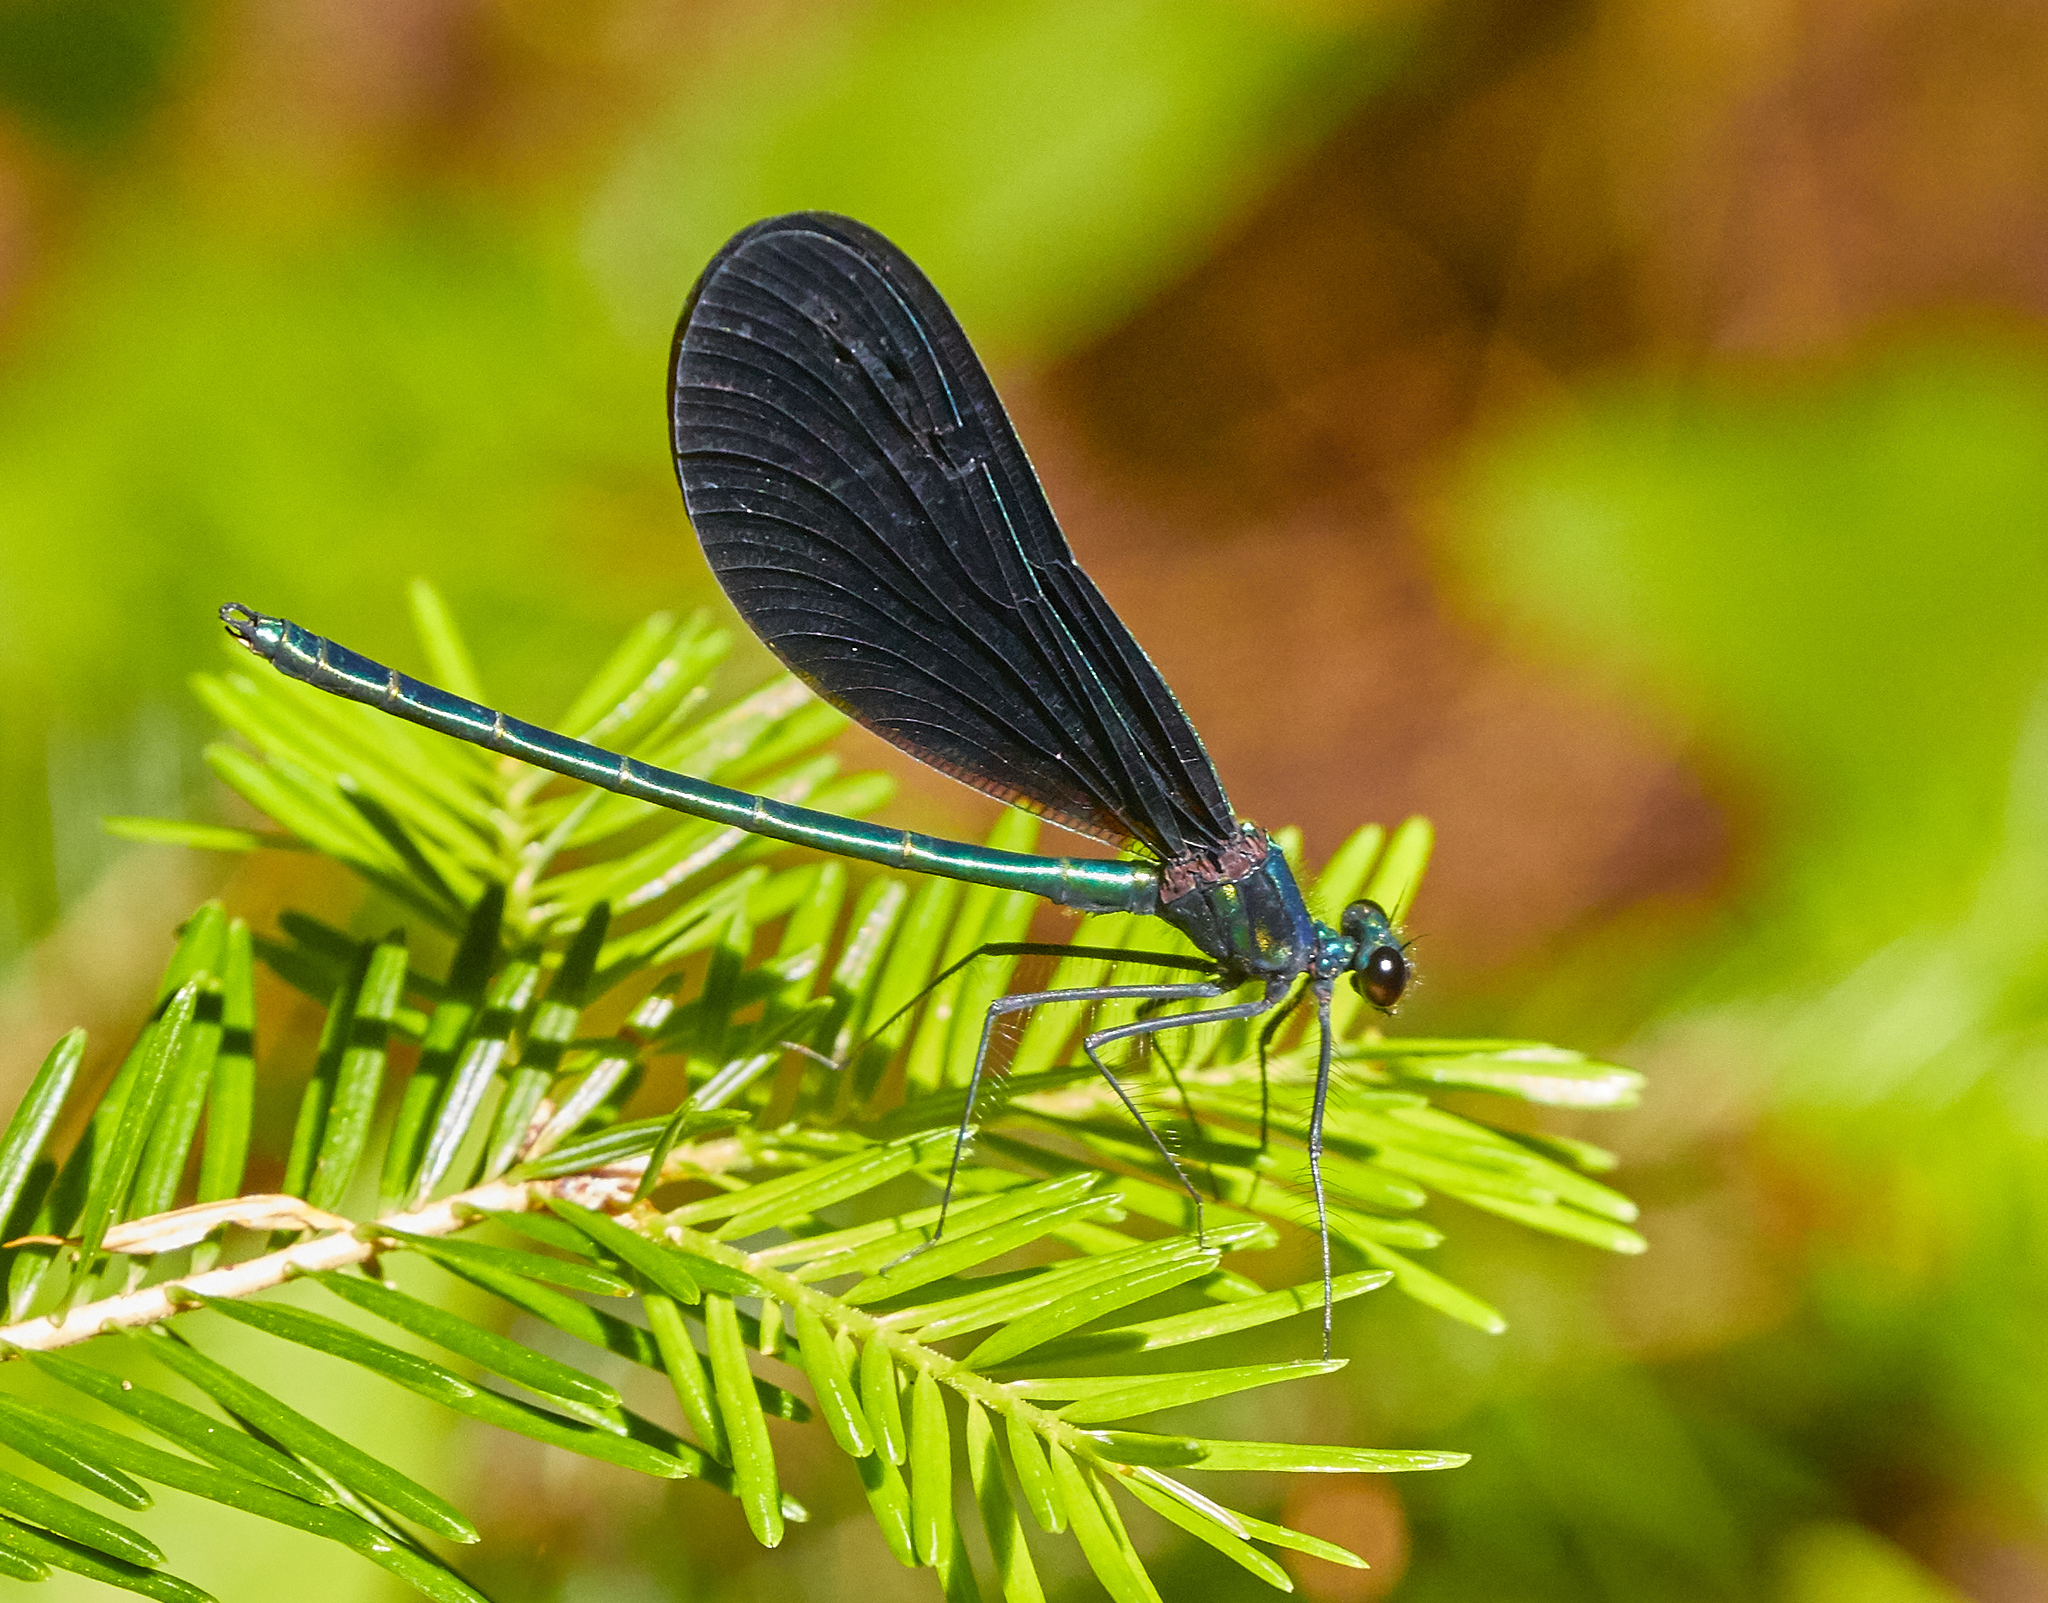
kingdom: Animalia
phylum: Arthropoda
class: Insecta
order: Odonata
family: Calopterygidae
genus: Calopteryx
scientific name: Calopteryx maculata
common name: Ebony jewelwing
